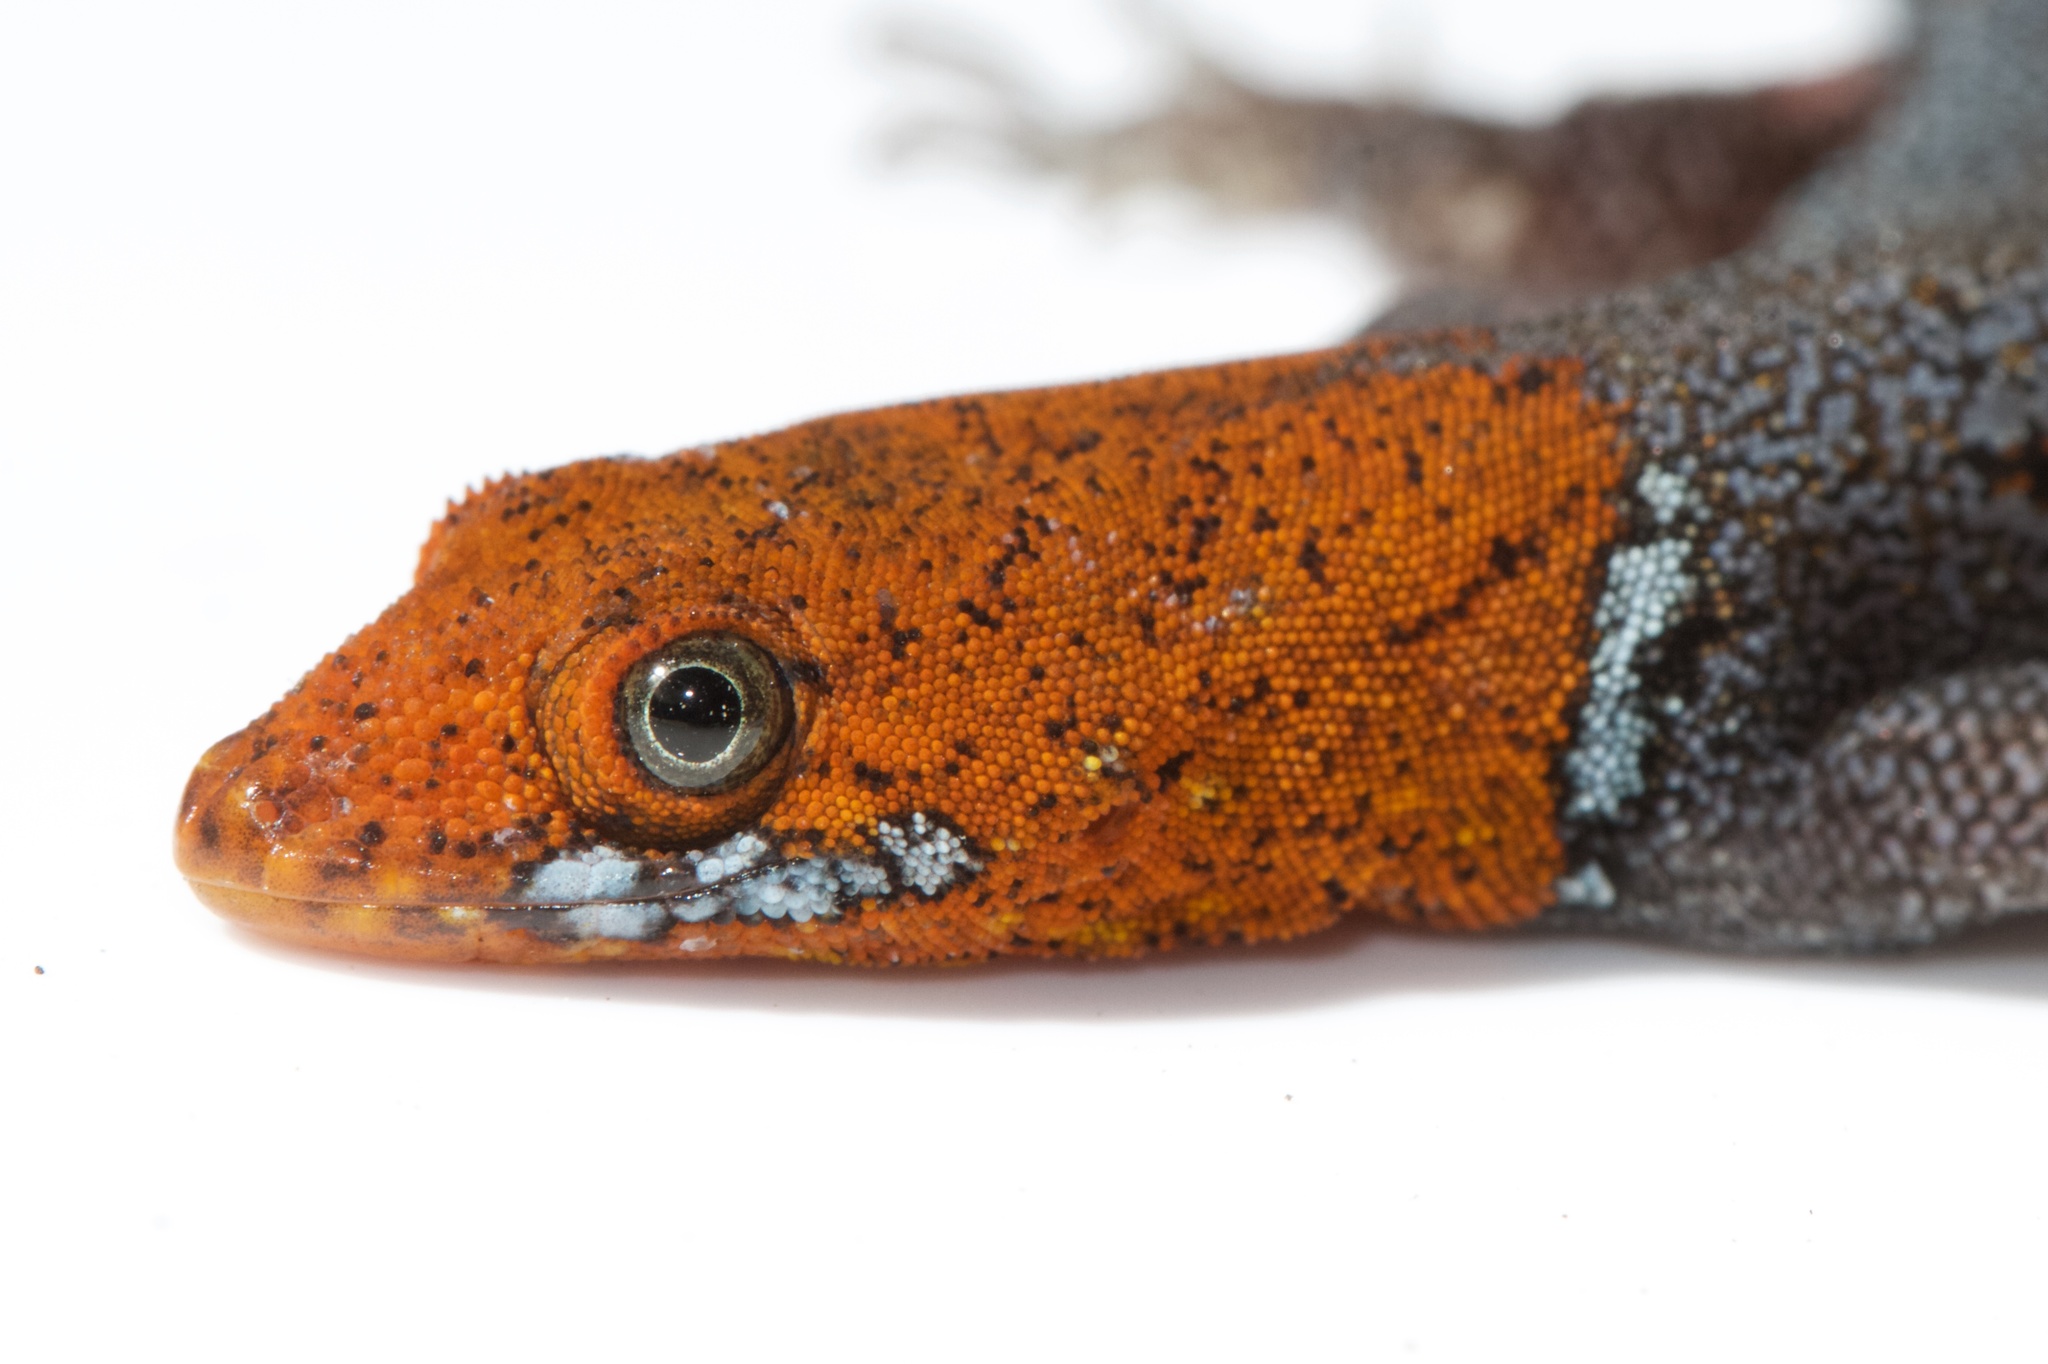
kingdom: Animalia
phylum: Chordata
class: Squamata
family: Sphaerodactylidae
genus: Gonatodes
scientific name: Gonatodes albogularis
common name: Yellow-headed gecko
